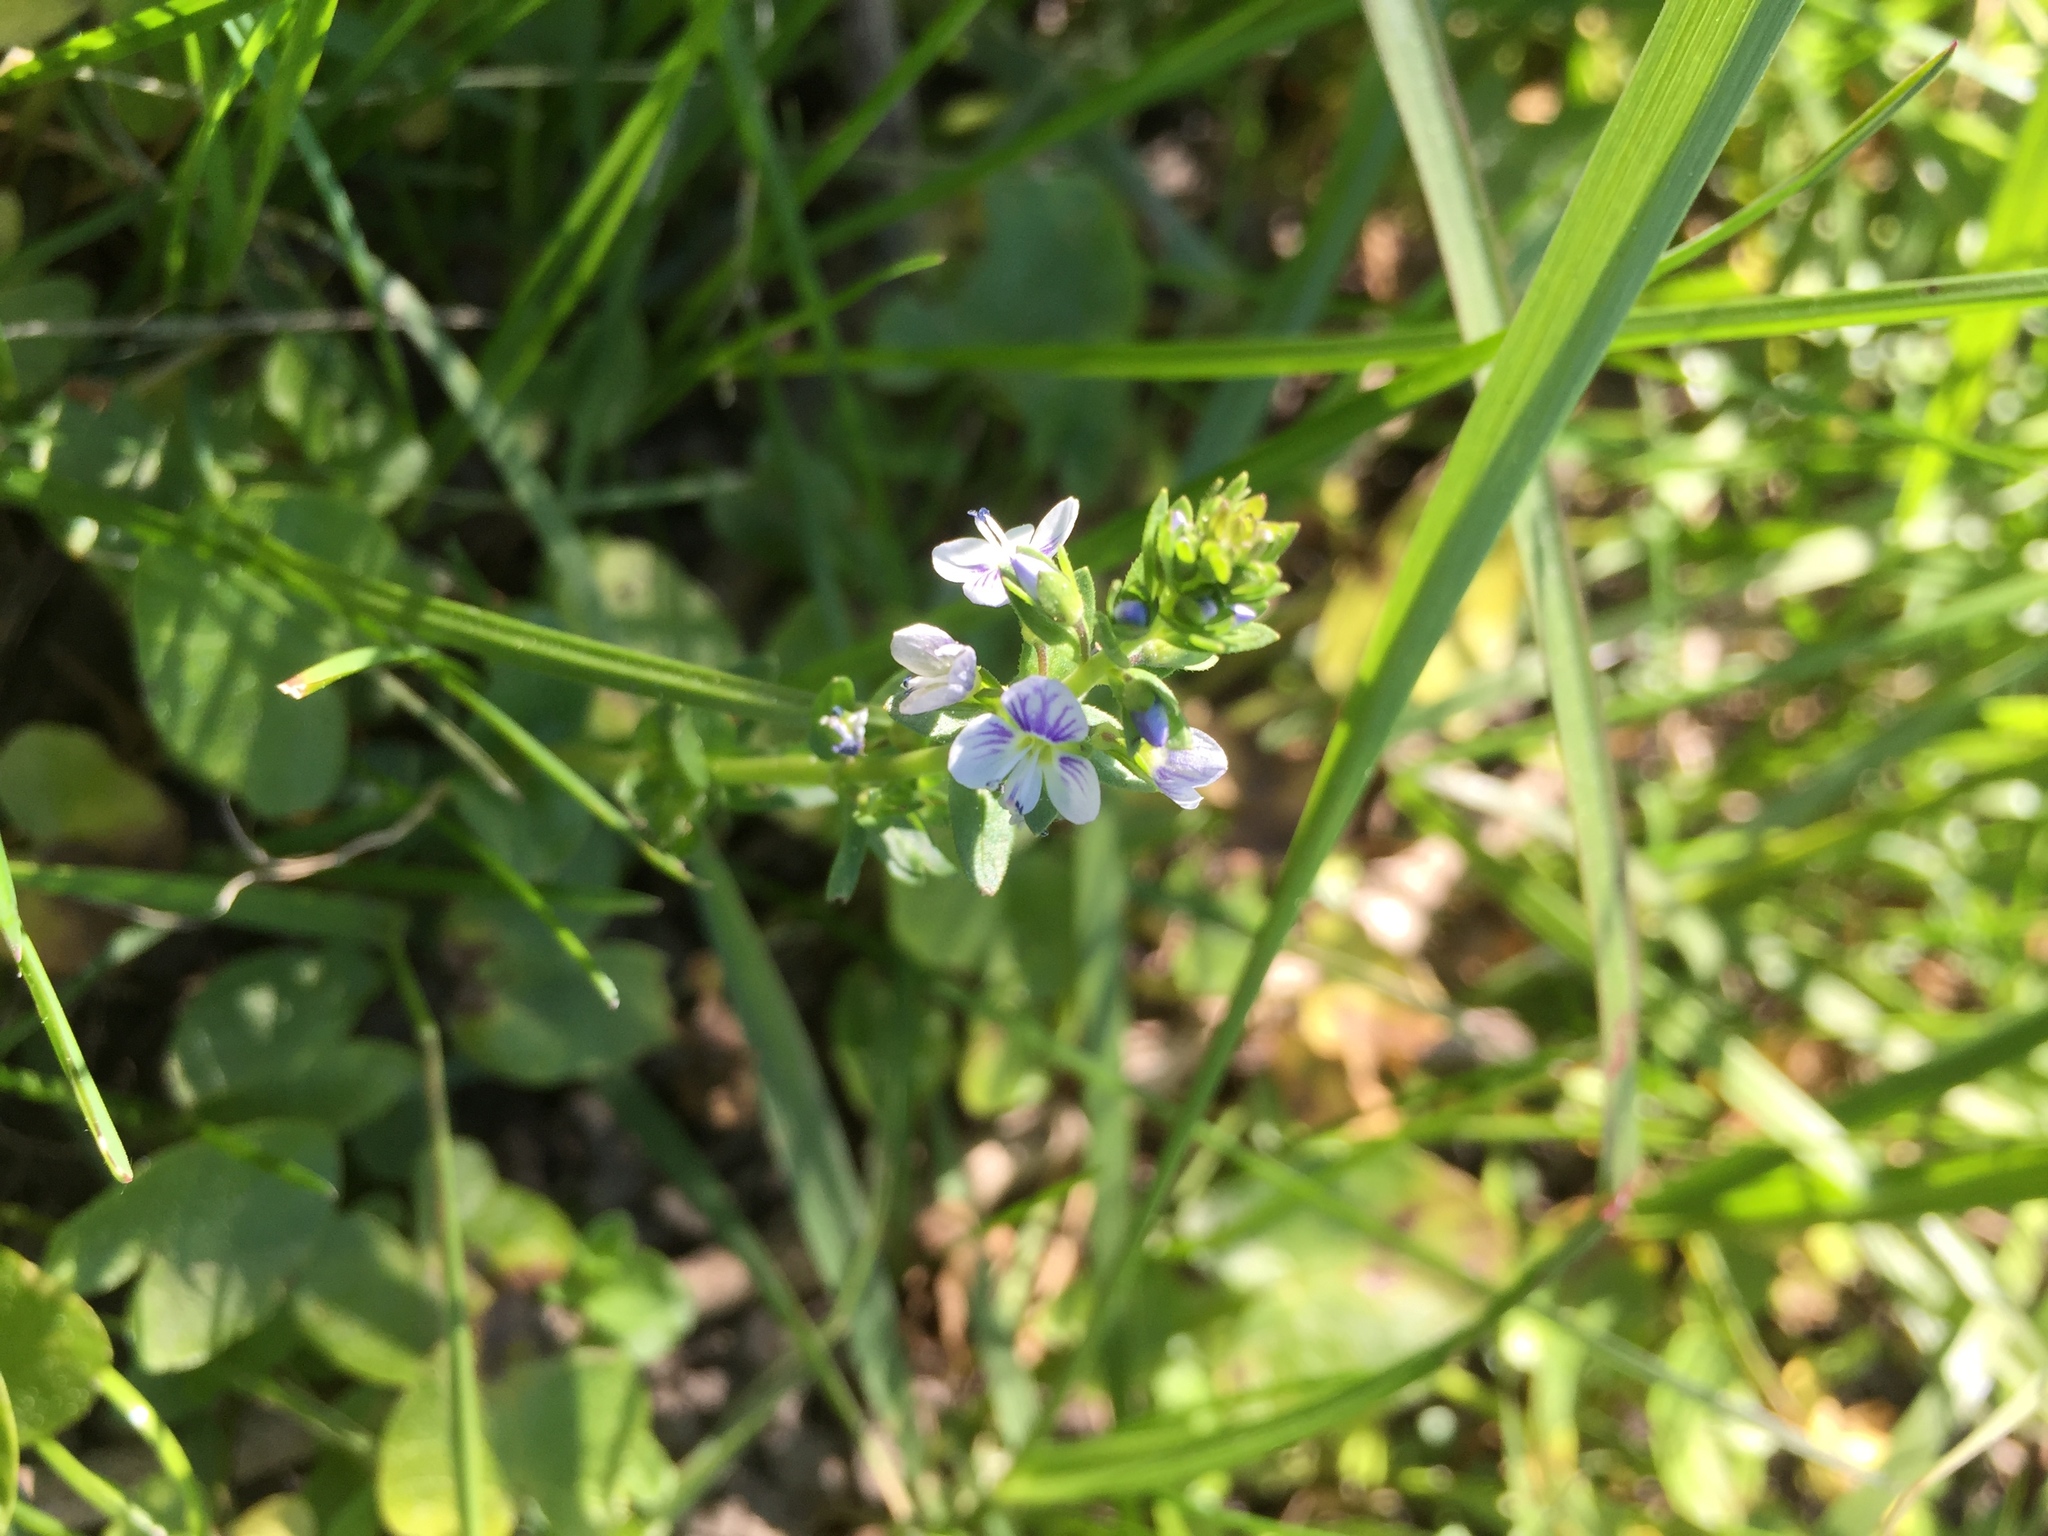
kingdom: Plantae
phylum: Tracheophyta
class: Magnoliopsida
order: Lamiales
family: Plantaginaceae
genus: Veronica
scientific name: Veronica serpyllifolia
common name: Thyme-leaved speedwell
